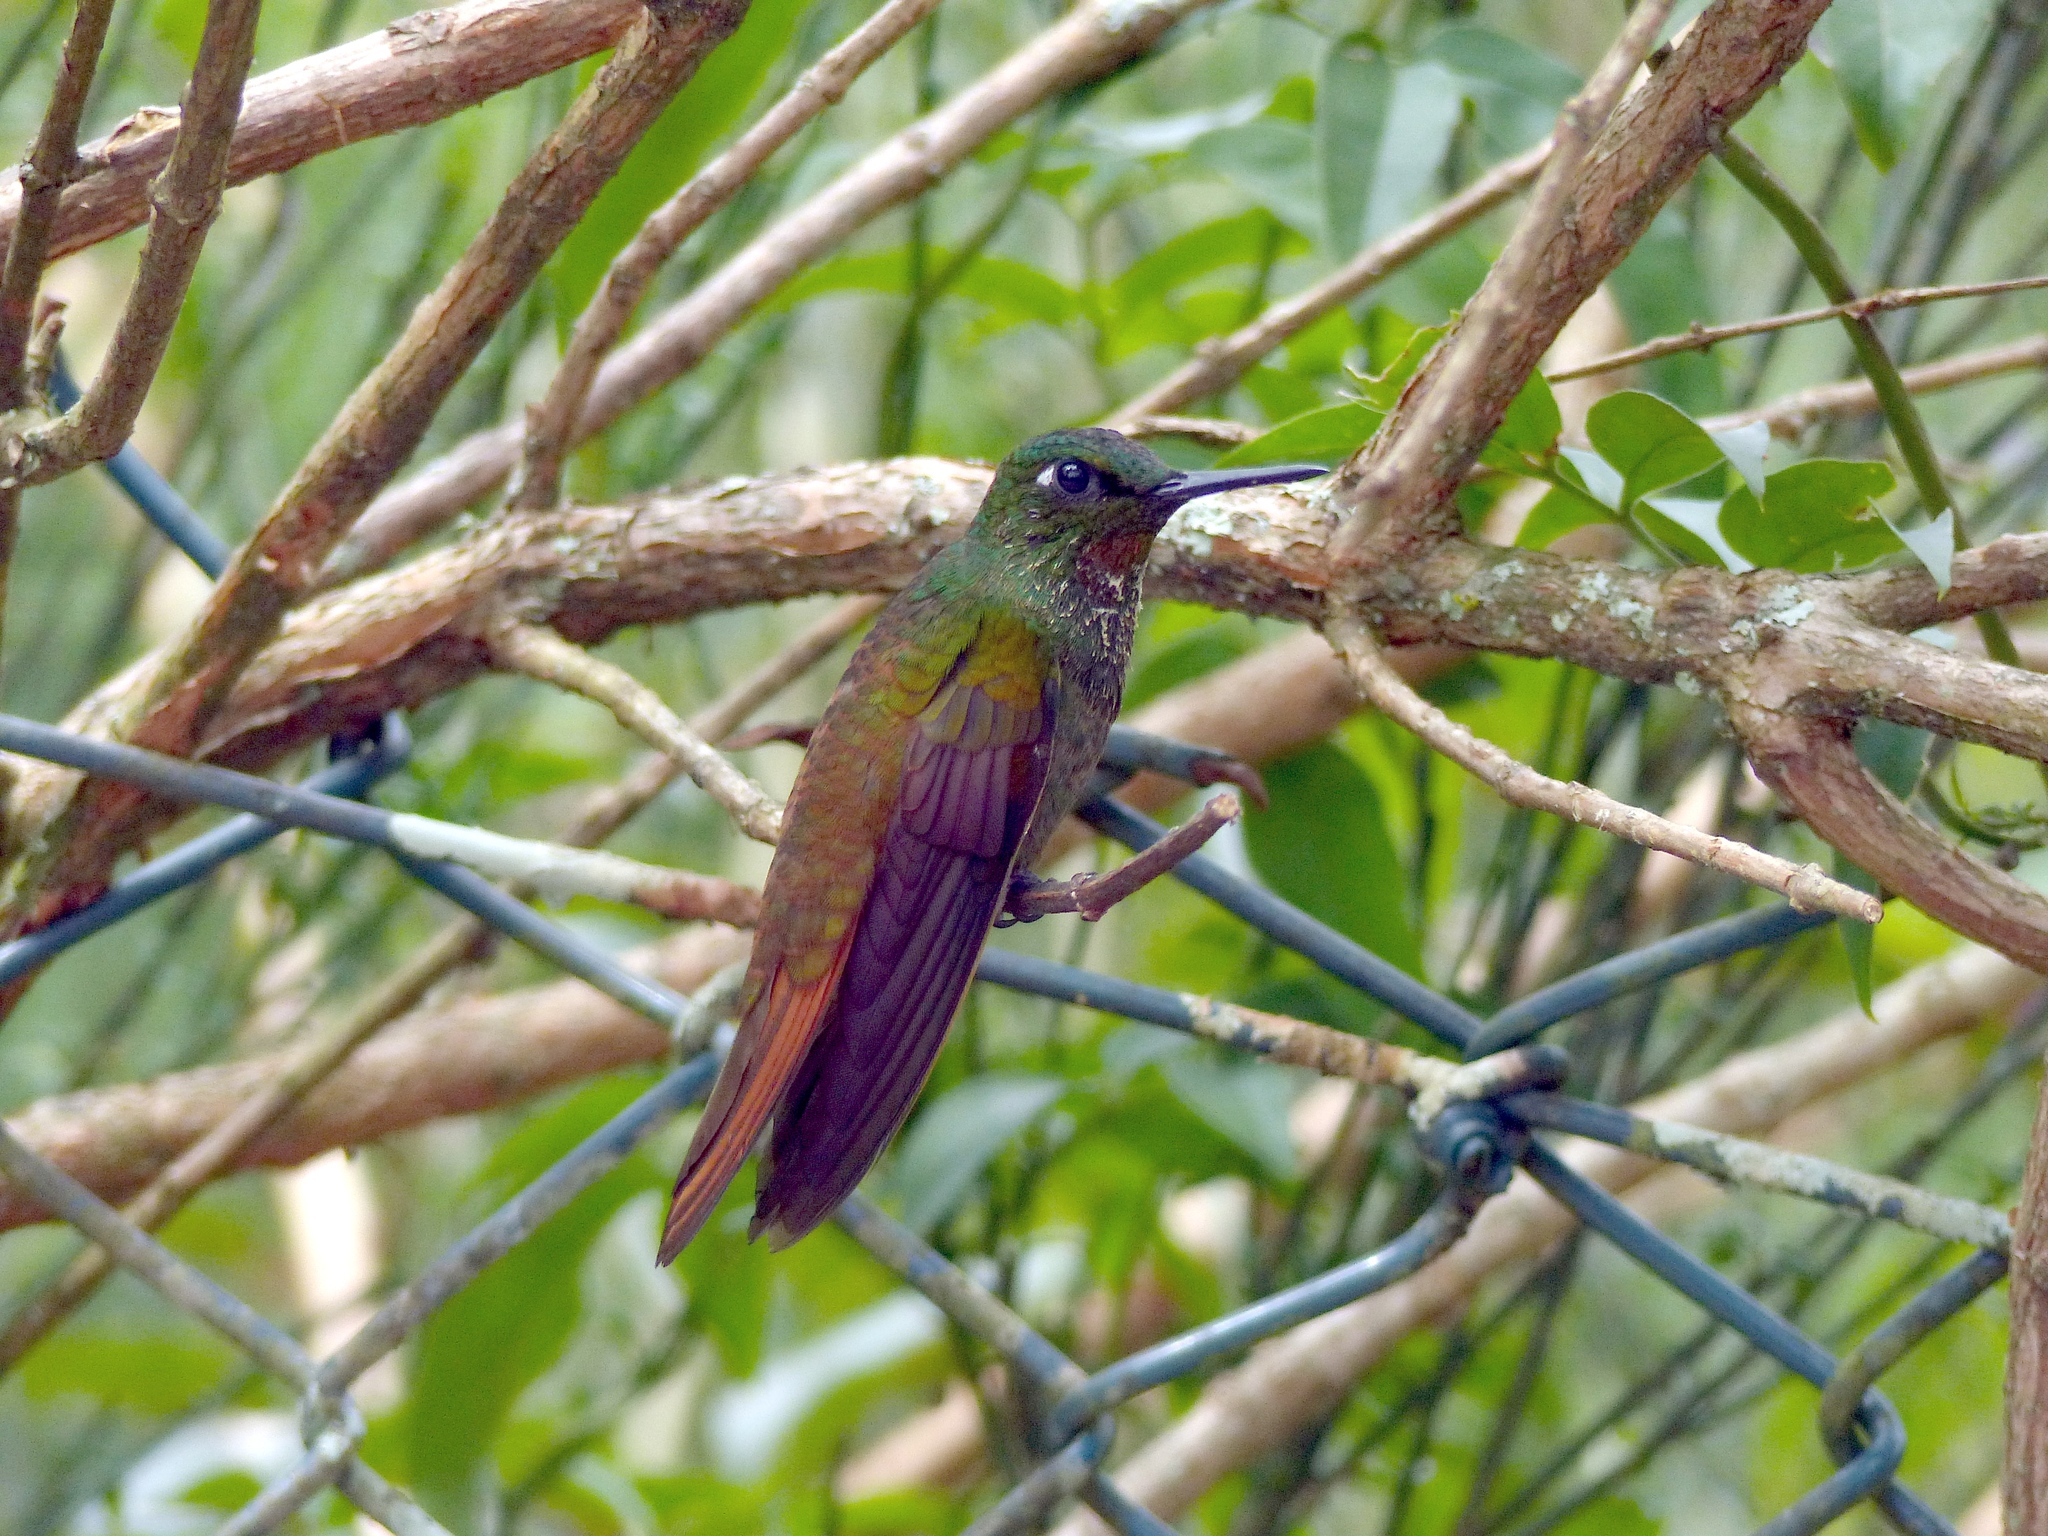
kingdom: Animalia
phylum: Chordata
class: Aves
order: Apodiformes
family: Trochilidae
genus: Clytolaema
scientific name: Clytolaema rubricauda
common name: Brazilian ruby
